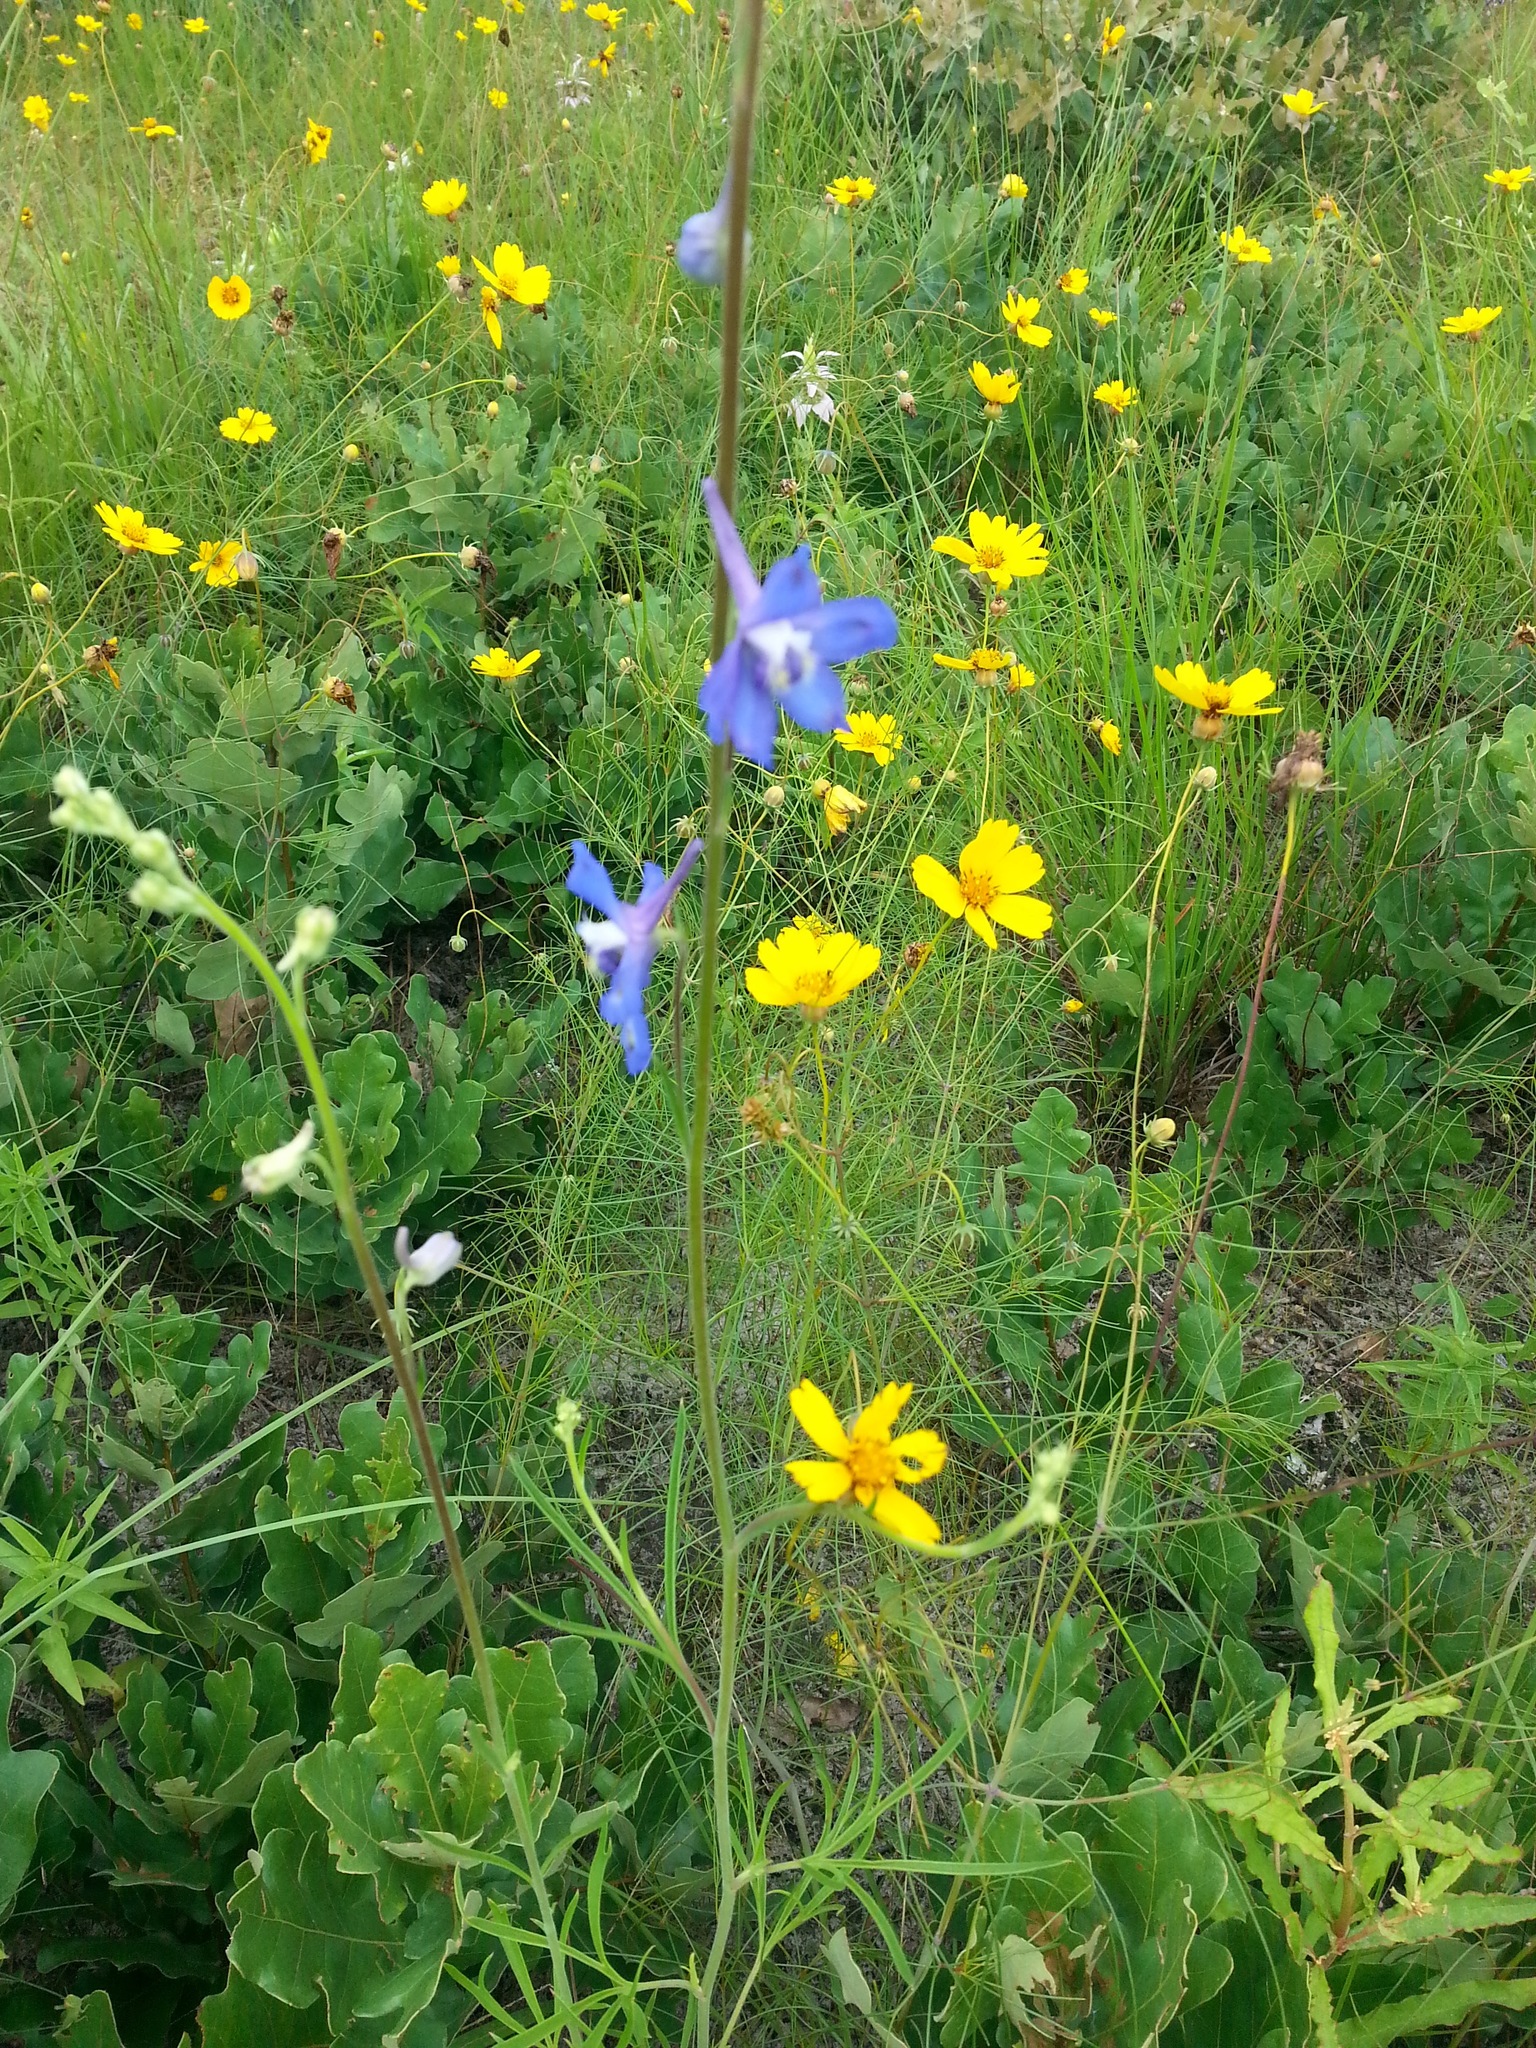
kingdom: Plantae
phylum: Tracheophyta
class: Magnoliopsida
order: Ranunculales
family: Ranunculaceae
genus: Delphinium
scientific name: Delphinium carolinianum
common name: Carolina larkspur
